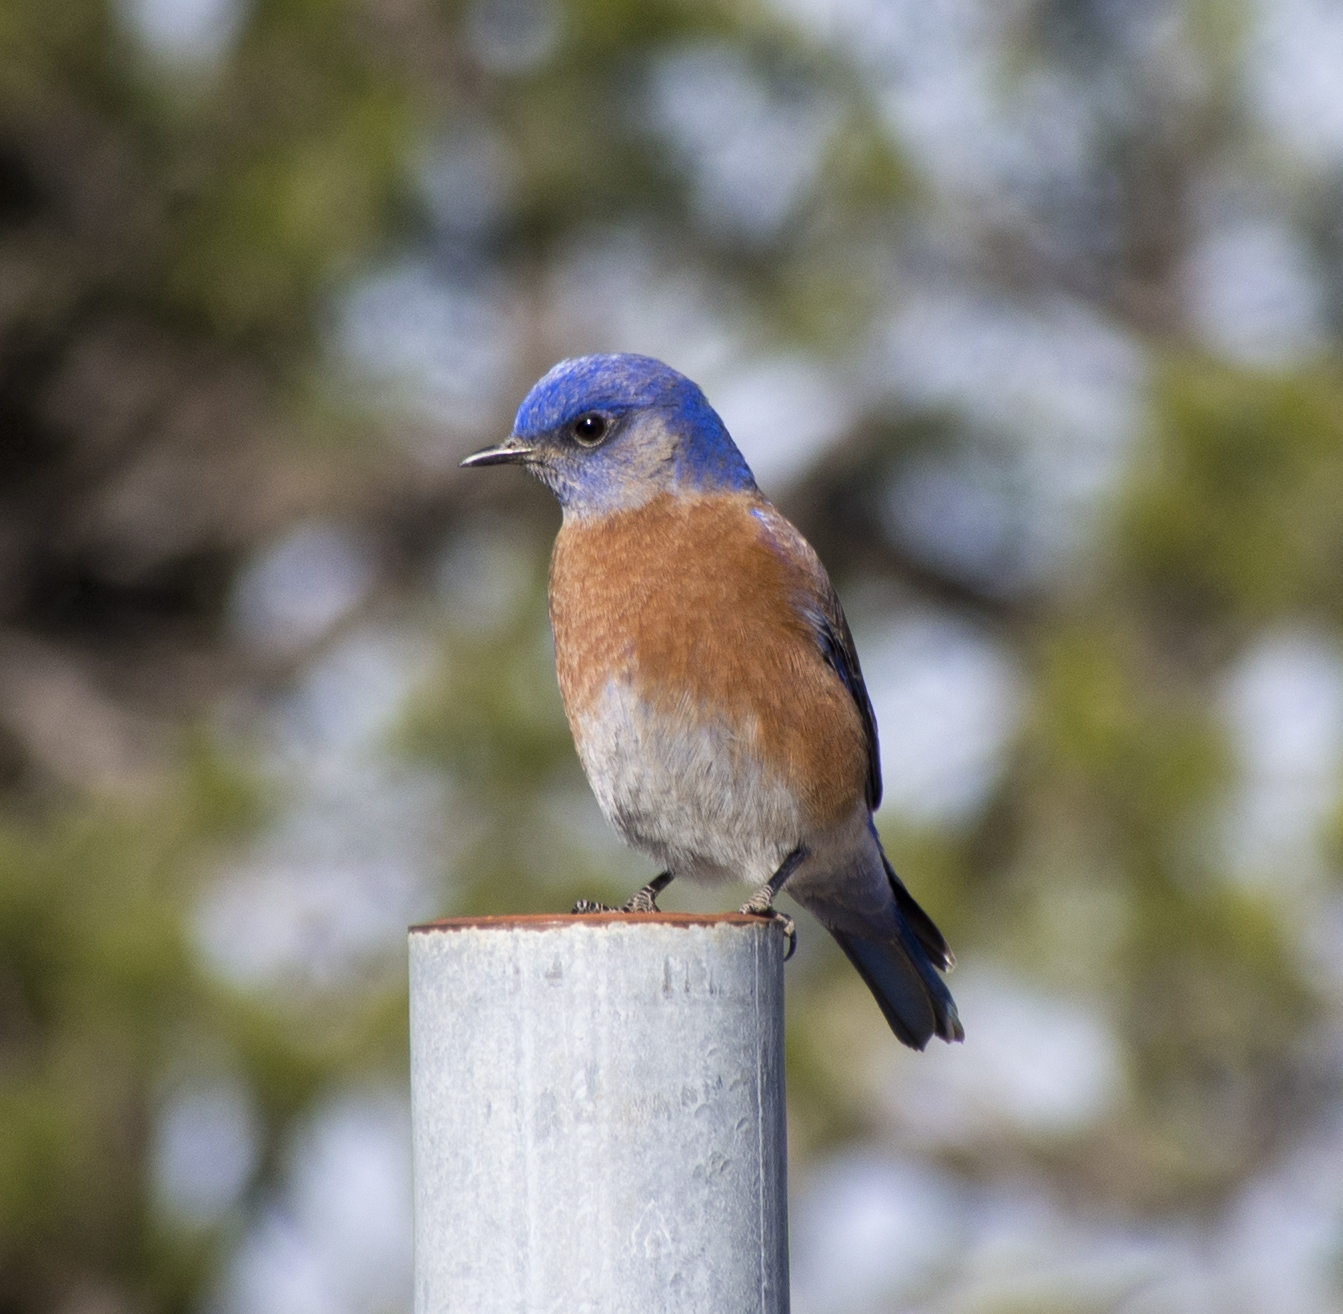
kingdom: Animalia
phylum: Chordata
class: Aves
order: Passeriformes
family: Turdidae
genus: Sialia
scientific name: Sialia mexicana
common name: Western bluebird
